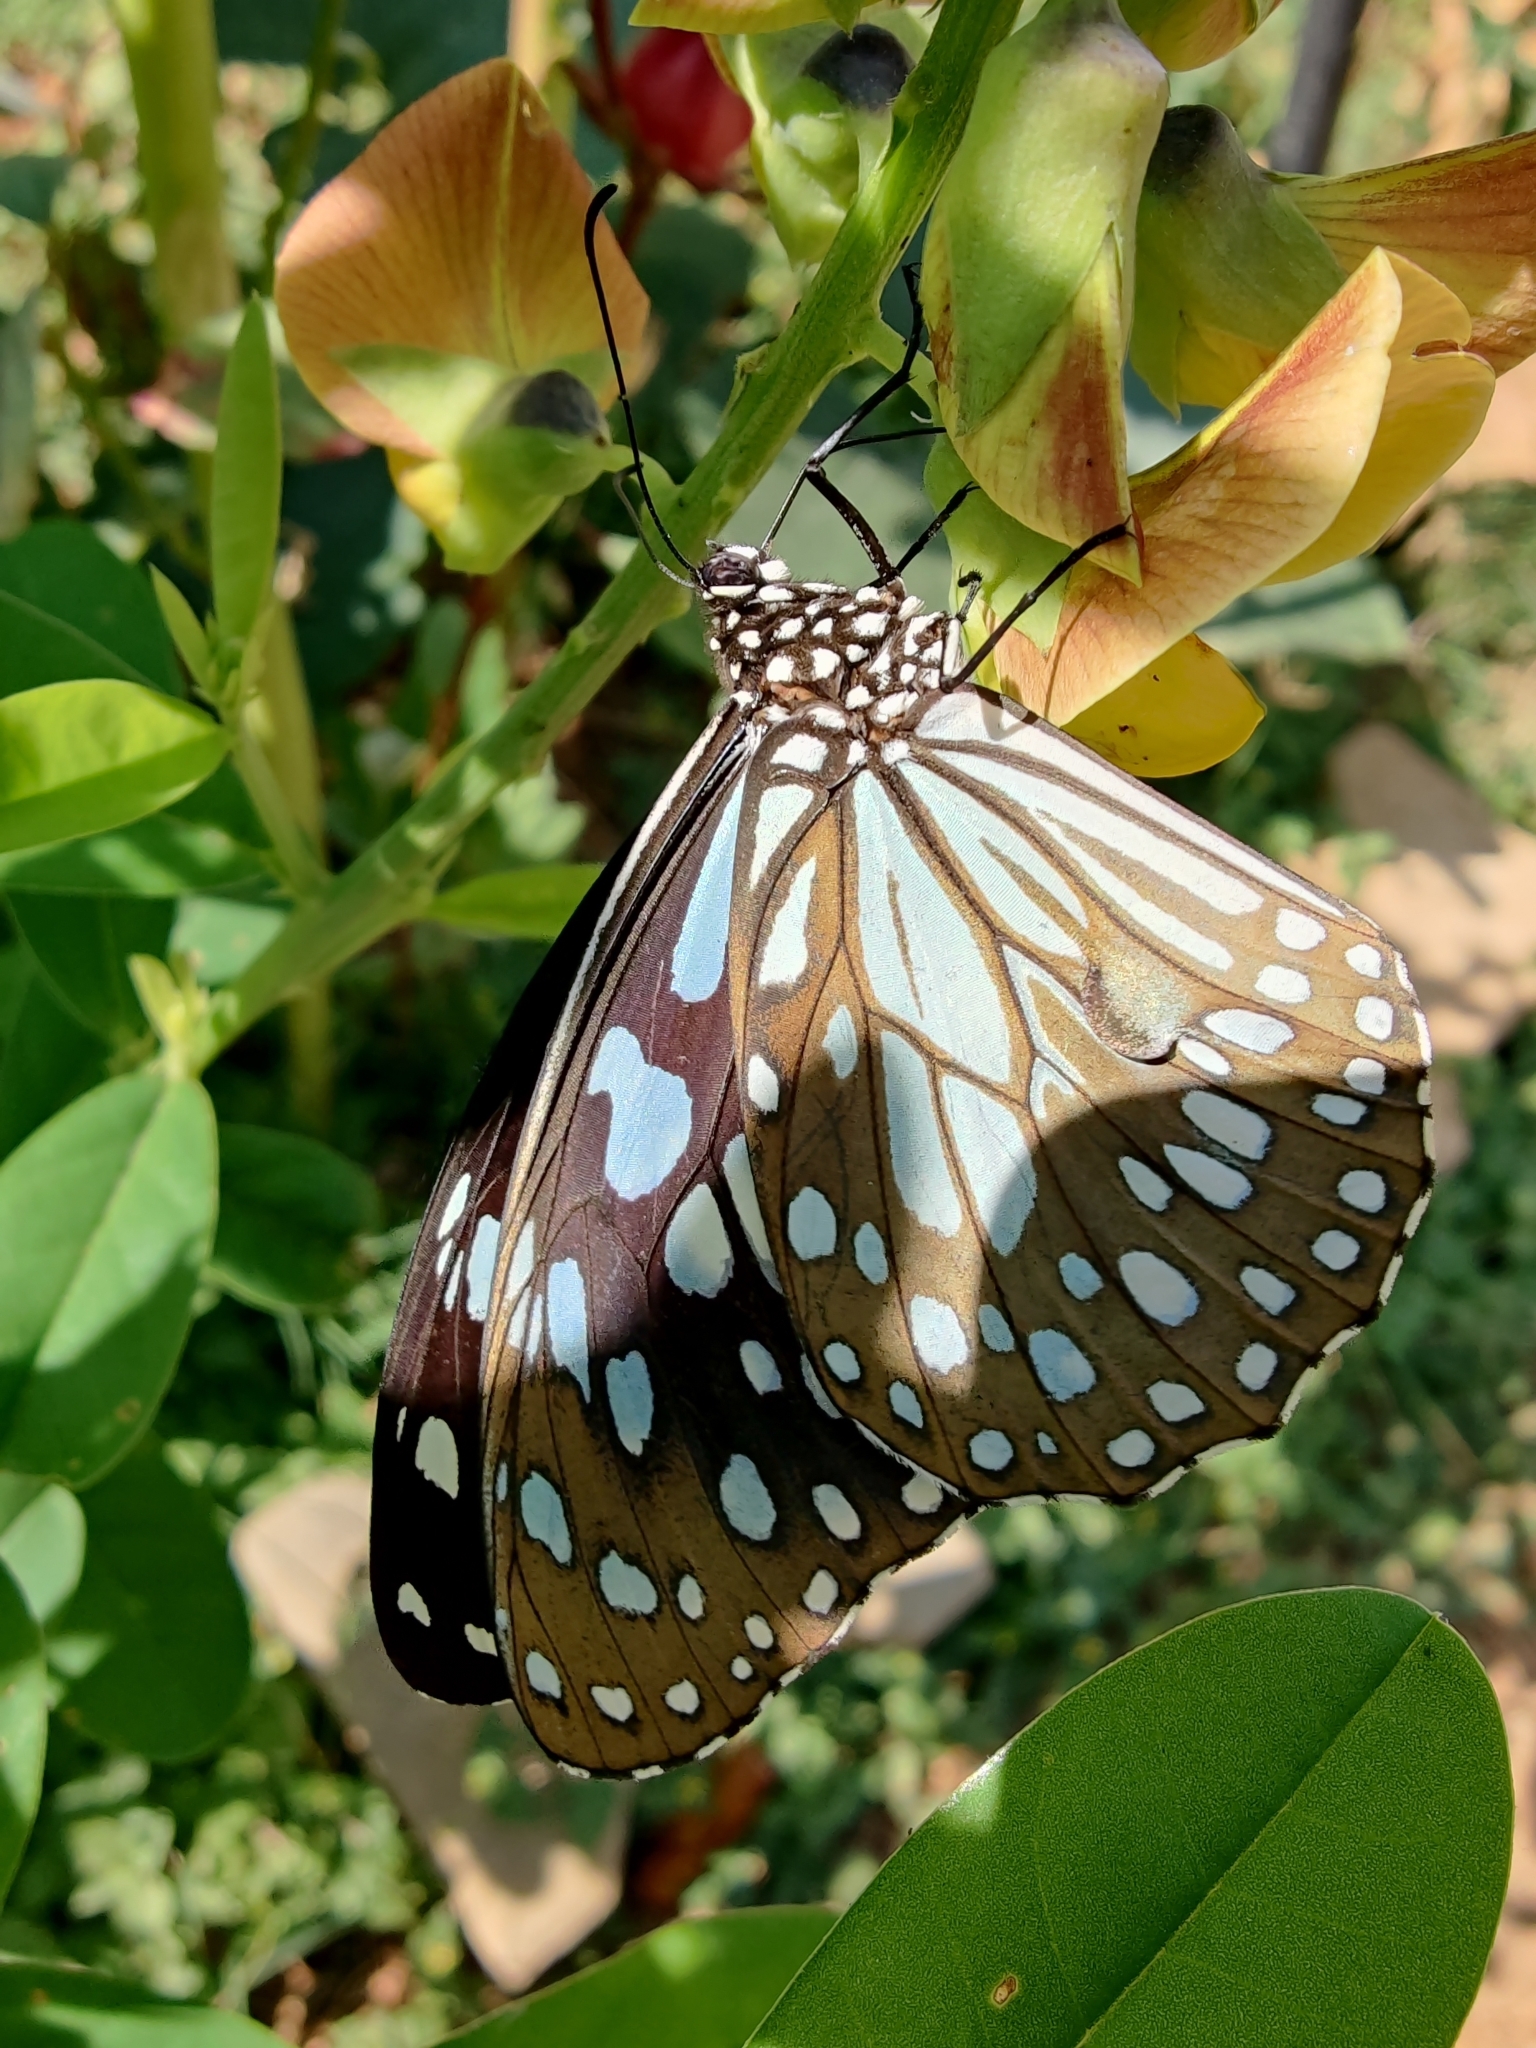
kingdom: Animalia
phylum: Arthropoda
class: Insecta
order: Lepidoptera
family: Nymphalidae
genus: Tirumala
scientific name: Tirumala limniace
